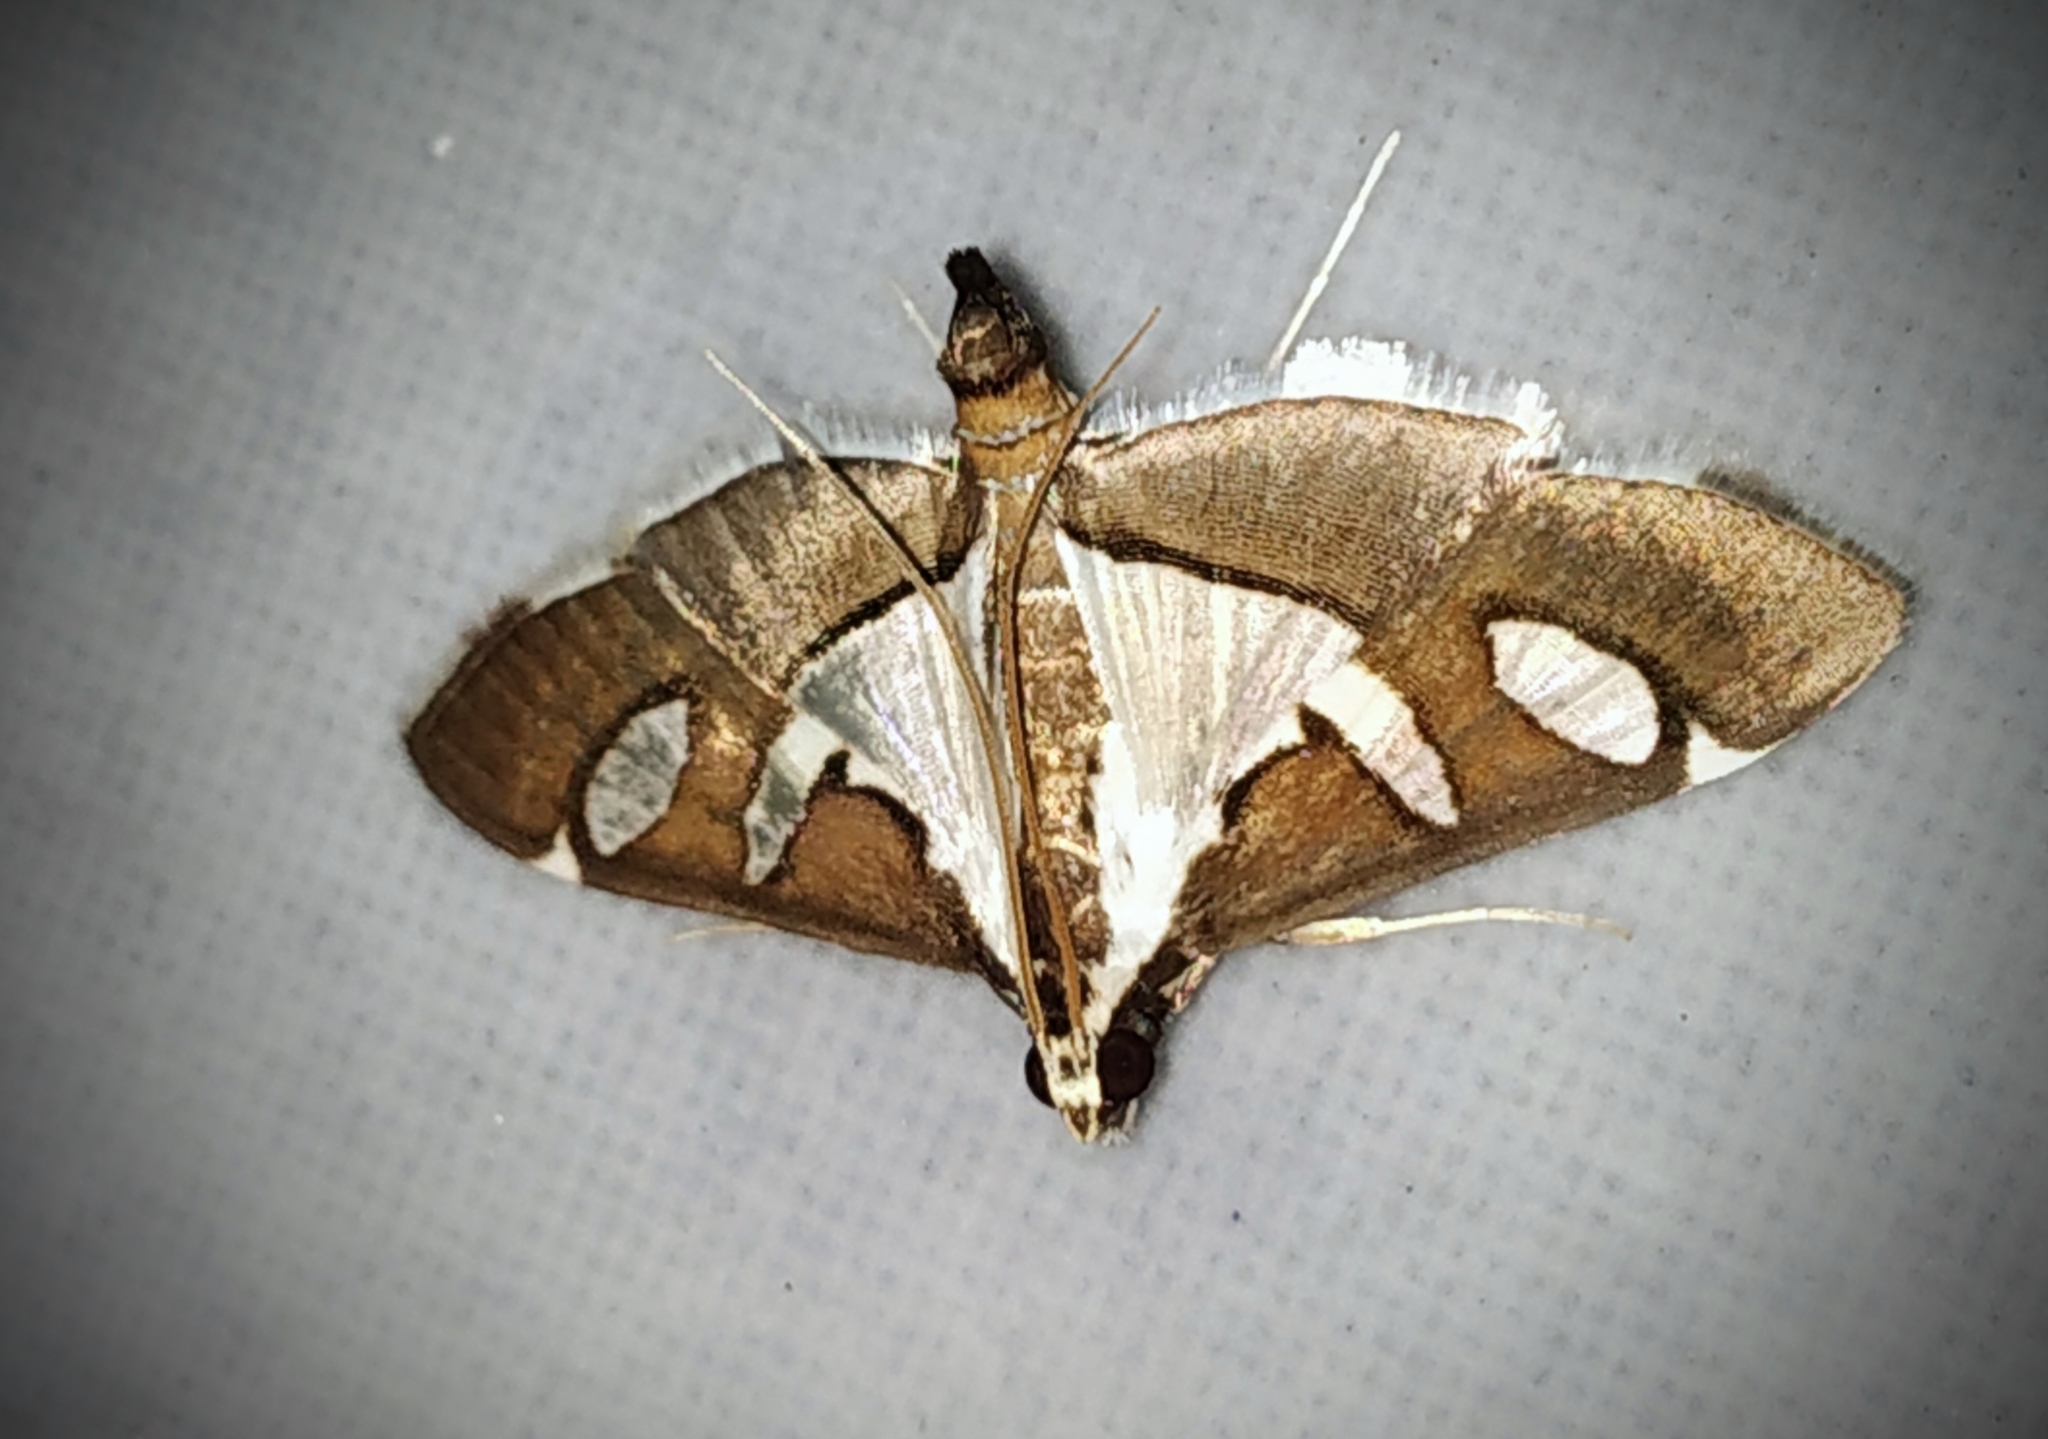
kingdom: Animalia
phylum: Arthropoda
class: Insecta
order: Lepidoptera
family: Crambidae
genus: Glyphodes
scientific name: Glyphodes bicolor
